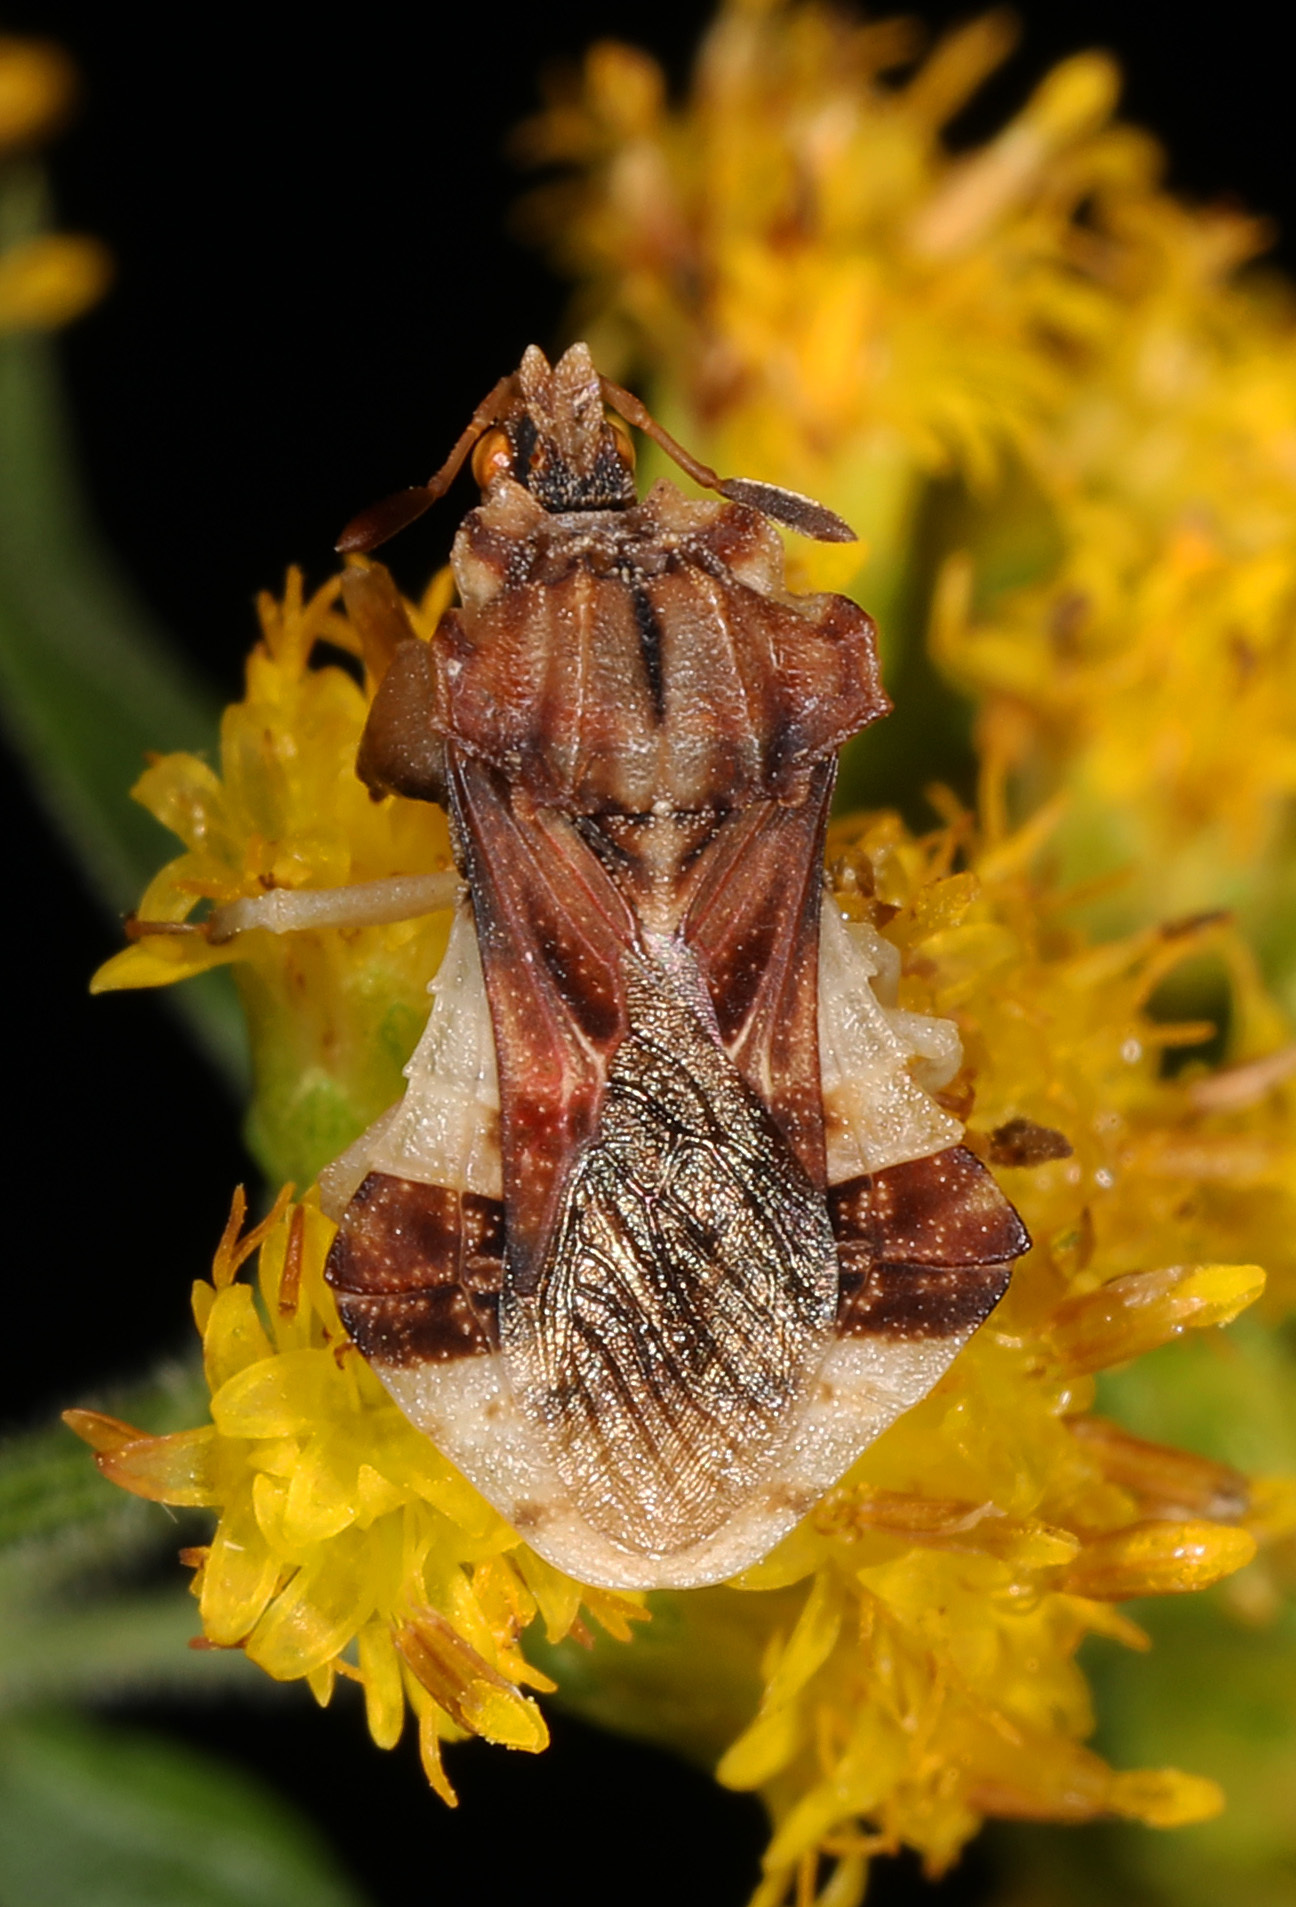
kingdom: Animalia
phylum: Arthropoda
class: Insecta
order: Hemiptera
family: Reduviidae
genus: Phymata
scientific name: Phymata fasciata
